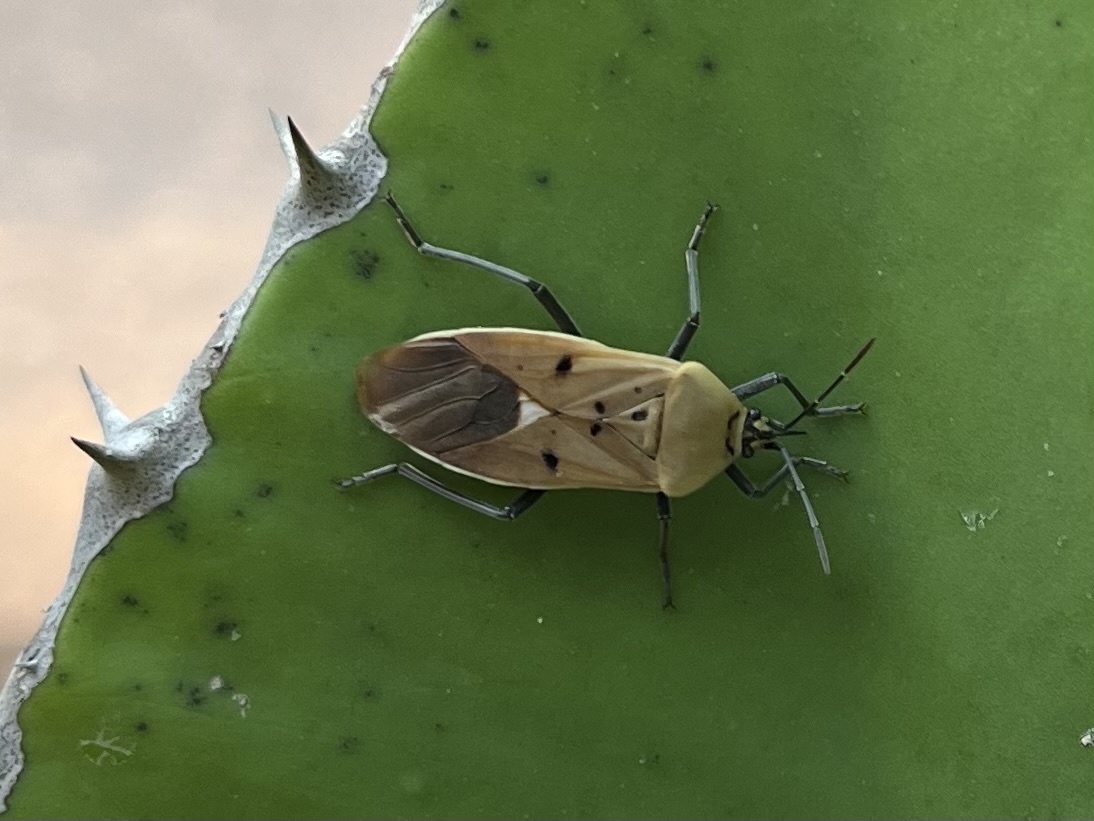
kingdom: Animalia
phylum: Arthropoda
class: Insecta
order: Hemiptera
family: Lygaeidae
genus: Microspilus
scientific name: Microspilus proximus
